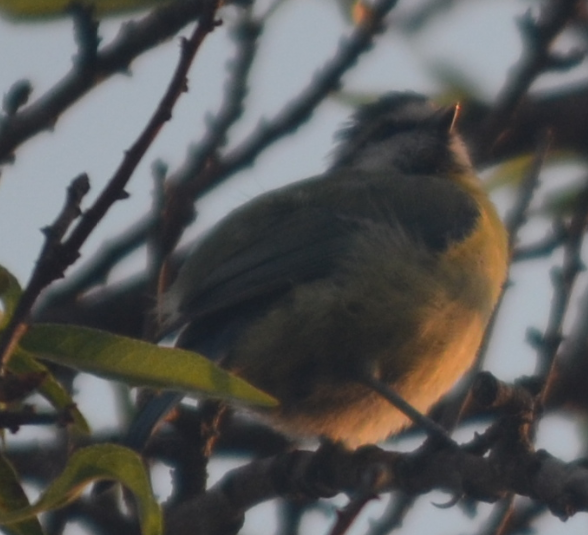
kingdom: Animalia
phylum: Chordata
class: Aves
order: Passeriformes
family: Paridae
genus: Cyanistes
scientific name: Cyanistes caeruleus
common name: Eurasian blue tit
